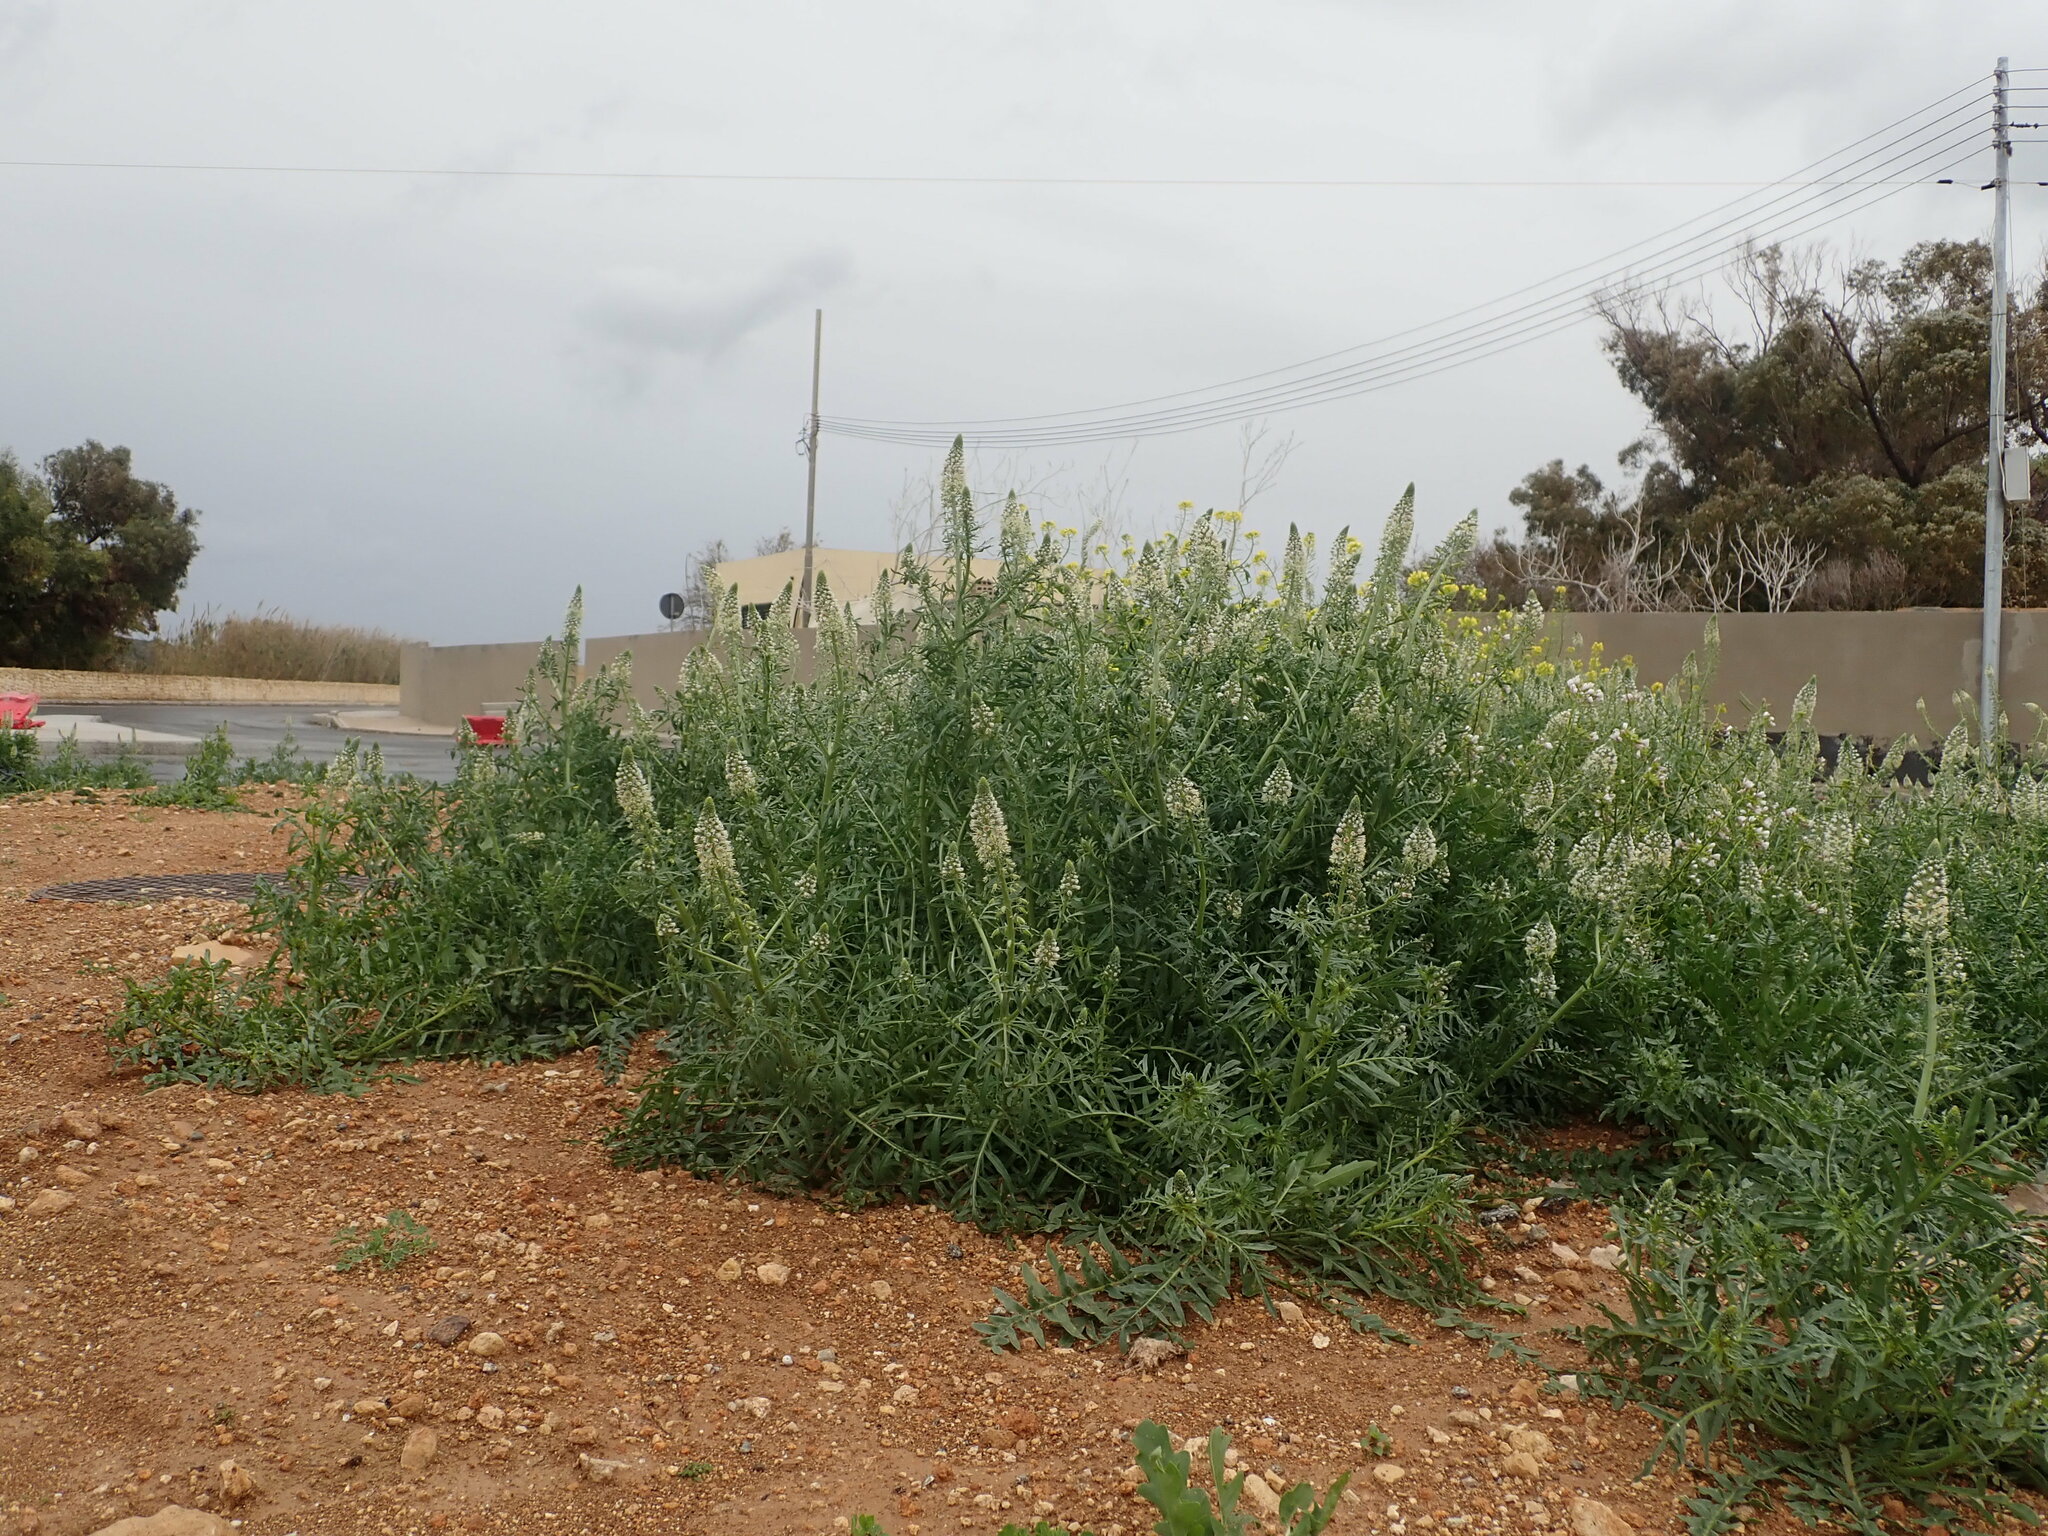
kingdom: Plantae
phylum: Tracheophyta
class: Magnoliopsida
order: Brassicales
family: Resedaceae
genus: Reseda
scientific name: Reseda alba
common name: White mignonette
